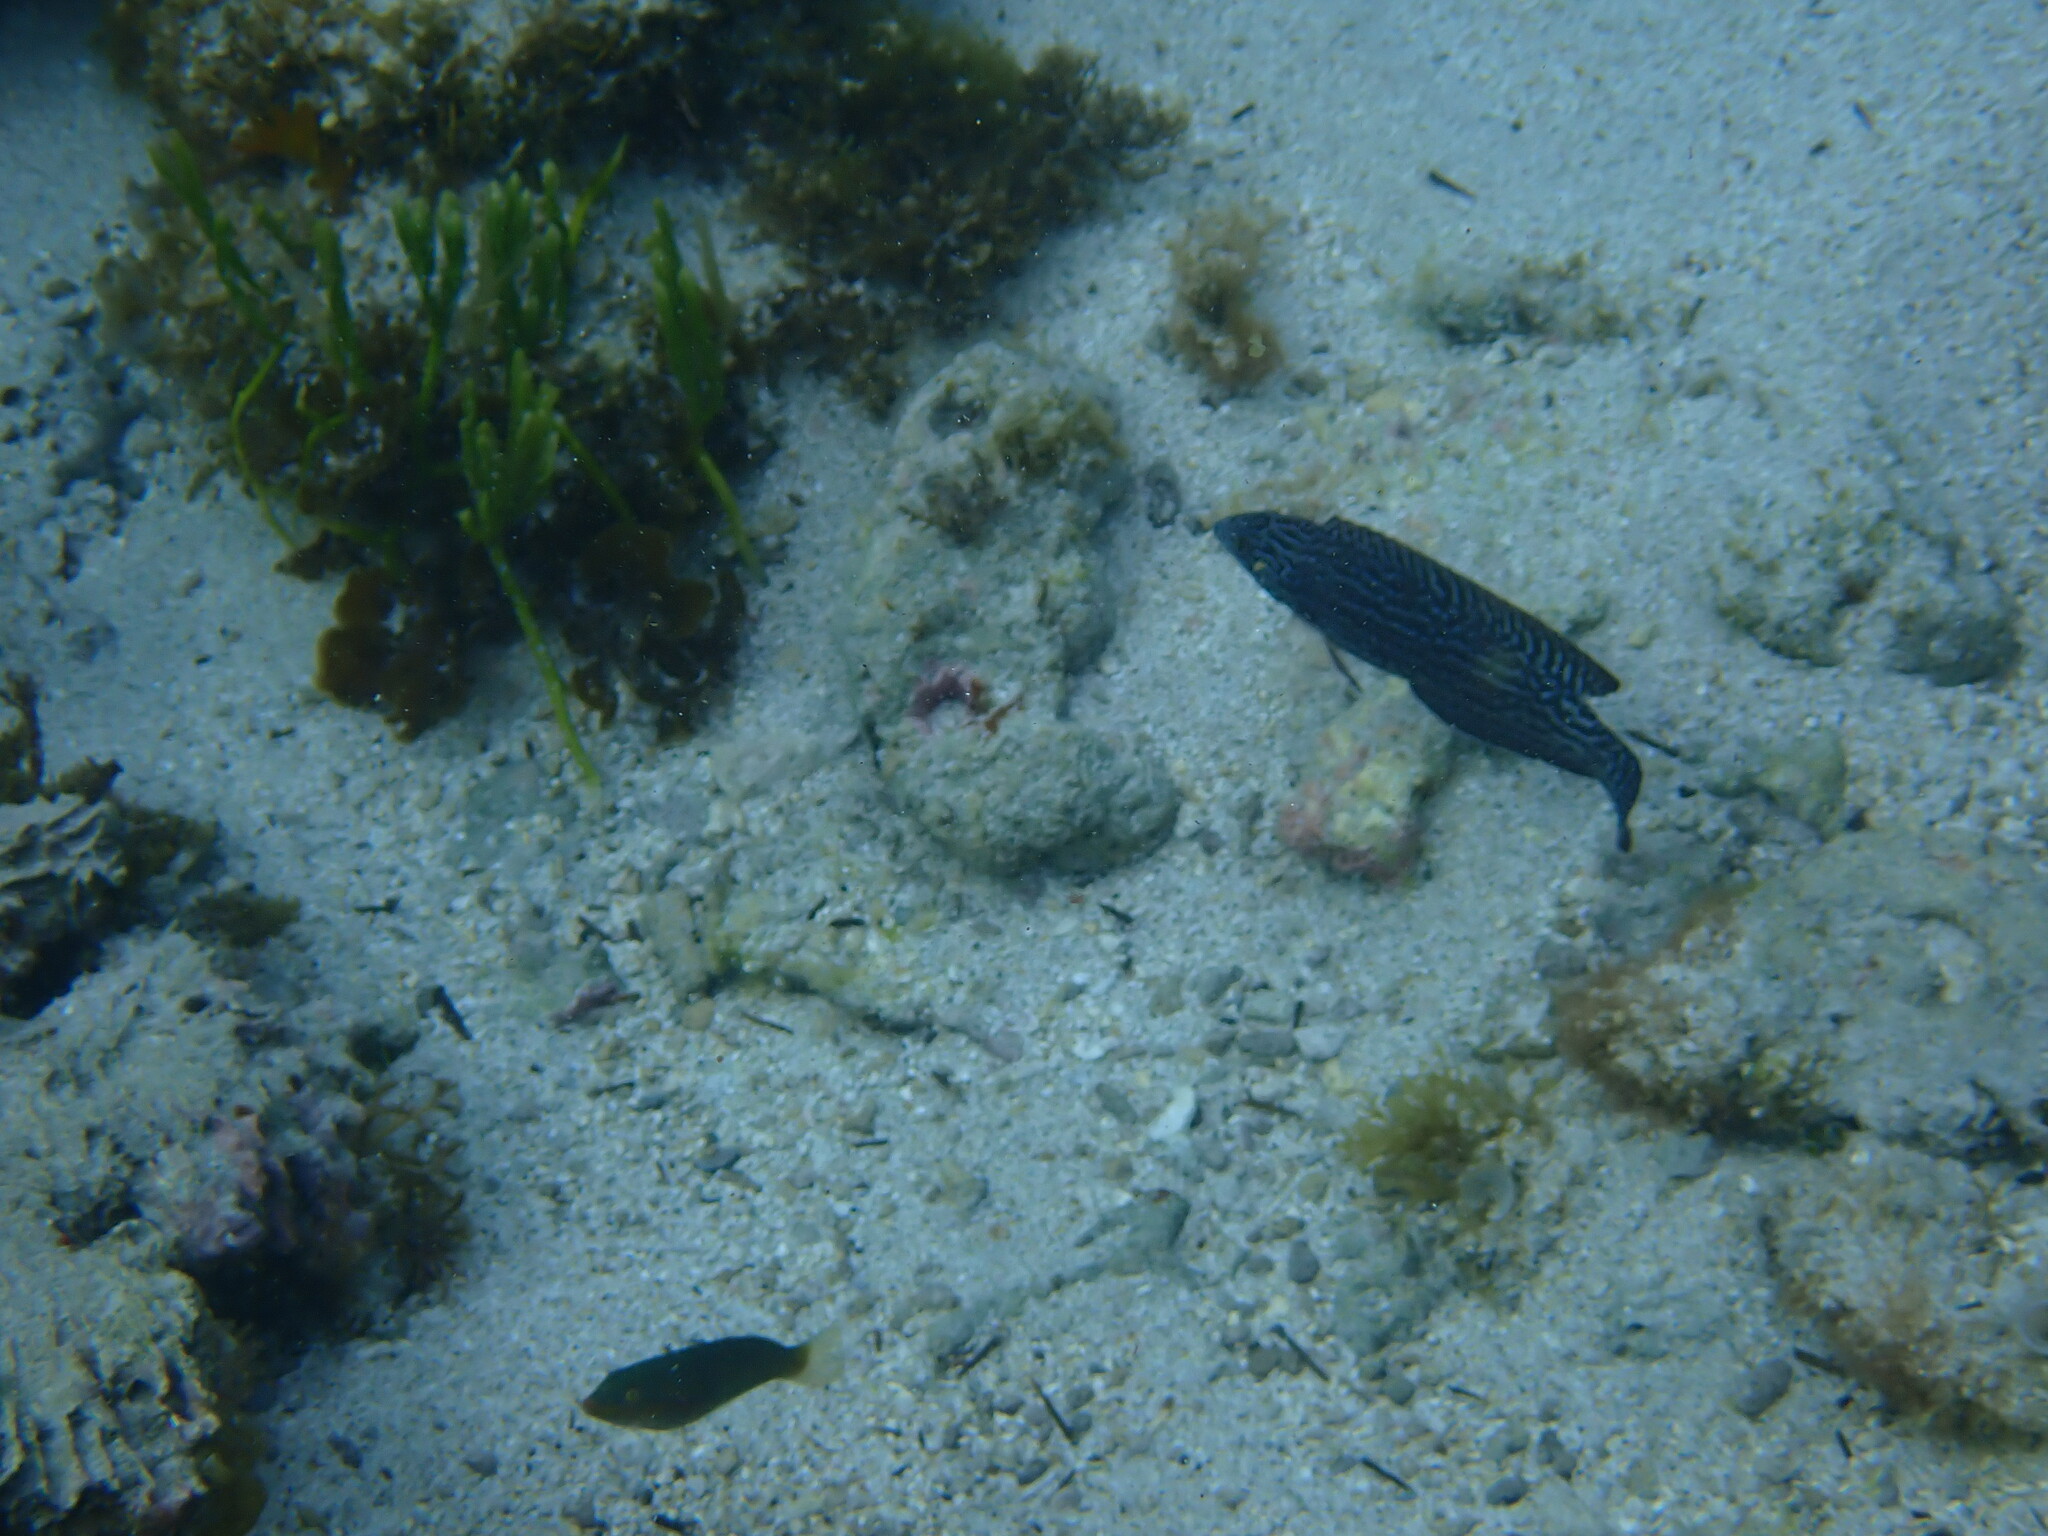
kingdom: Animalia
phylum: Chordata
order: Perciformes
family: Labridae
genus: Coris
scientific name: Coris bulbifrons
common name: Doubleheader
